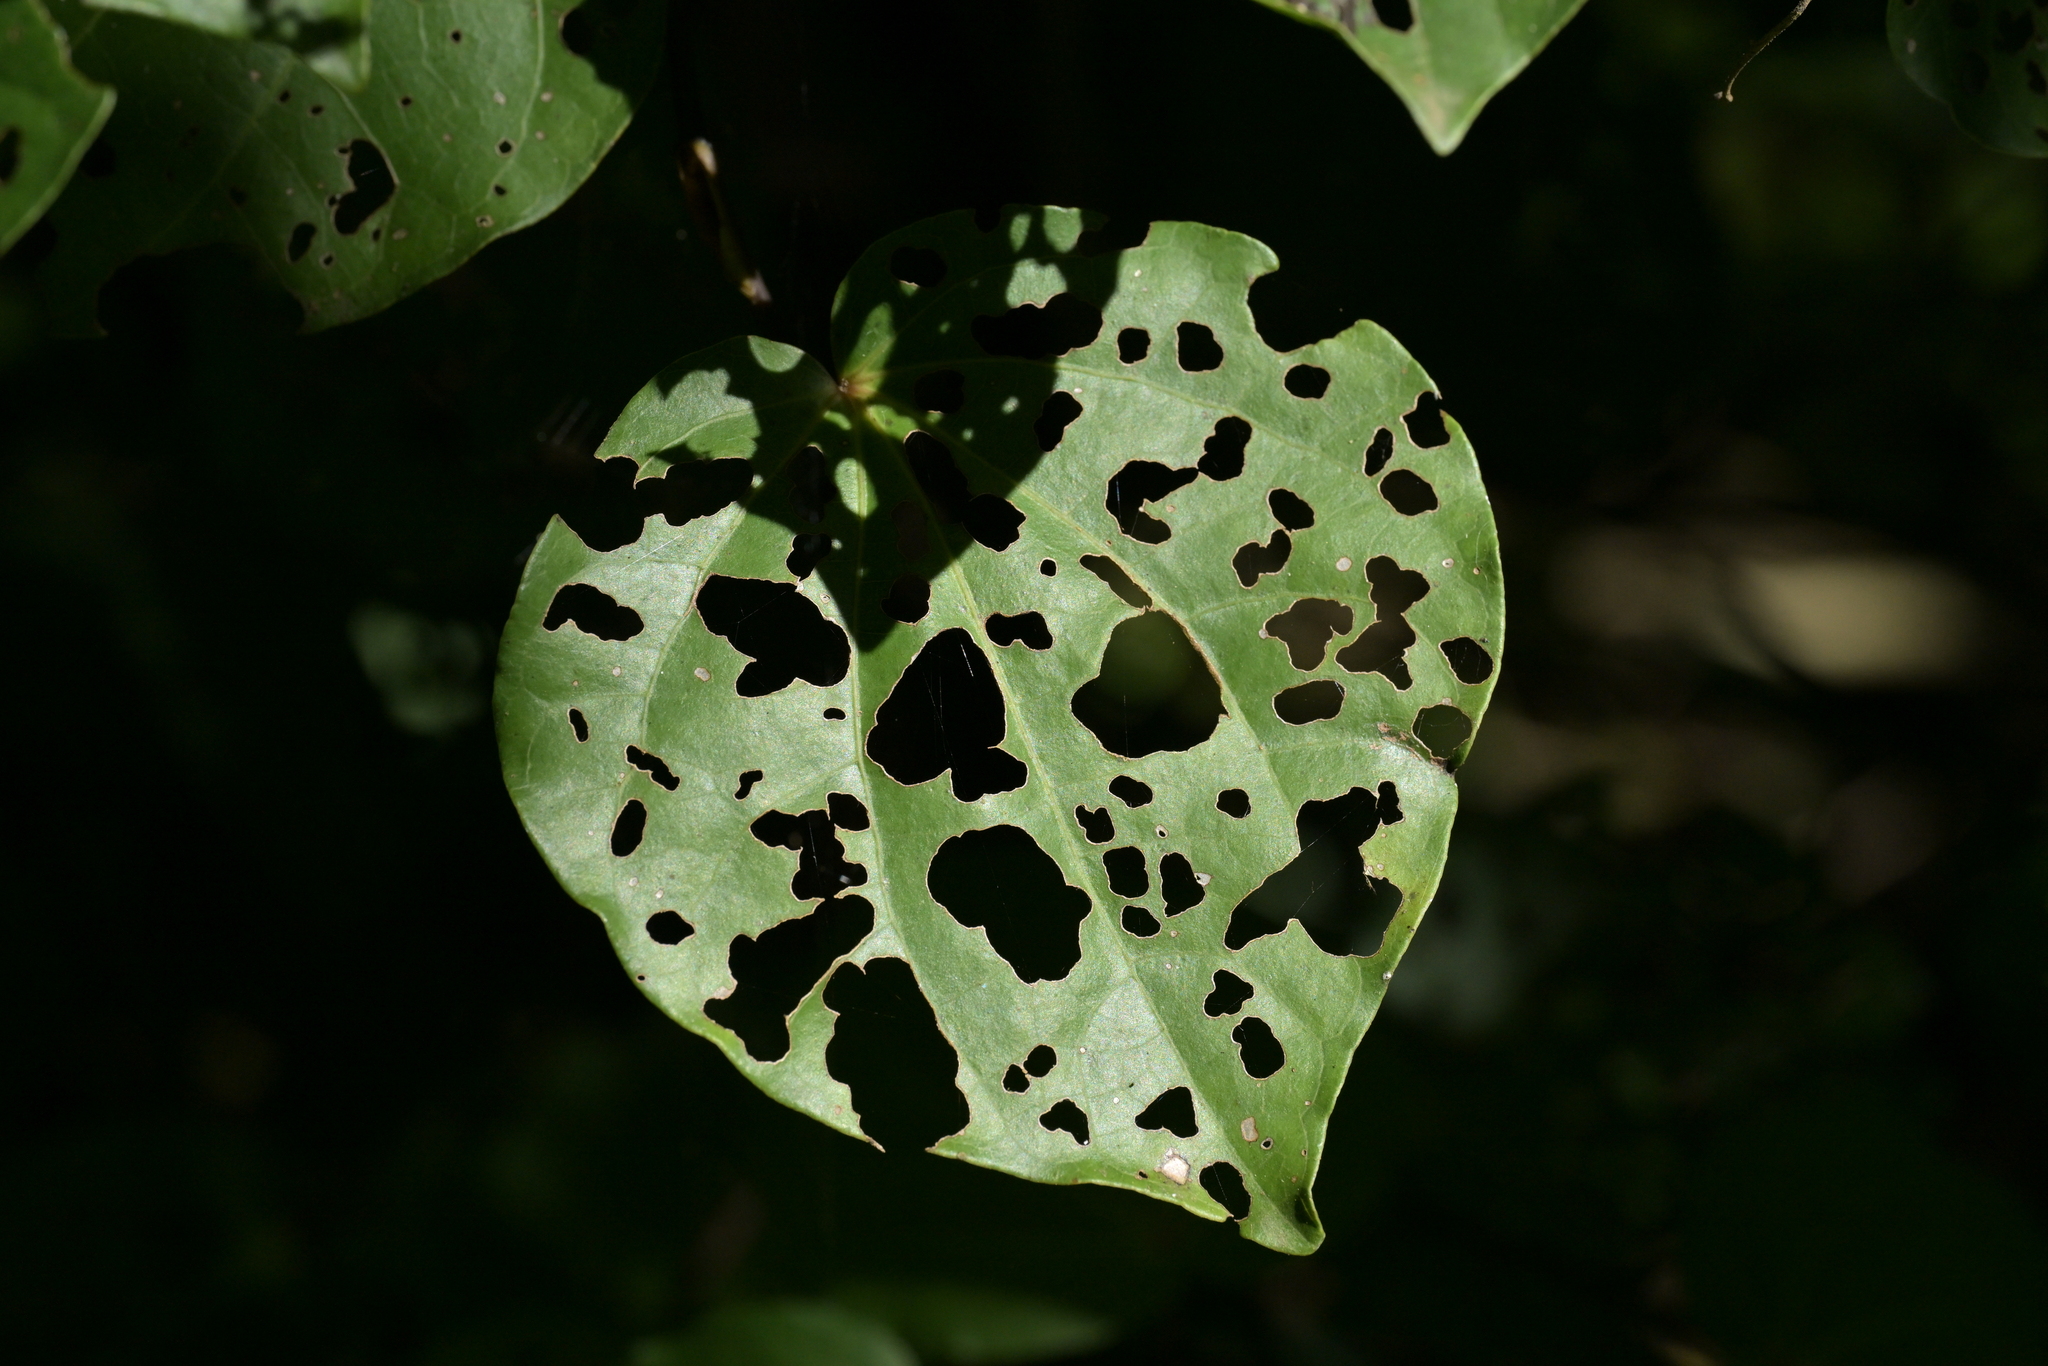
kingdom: Plantae
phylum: Tracheophyta
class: Magnoliopsida
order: Piperales
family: Piperaceae
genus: Macropiper
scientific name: Macropiper excelsum
